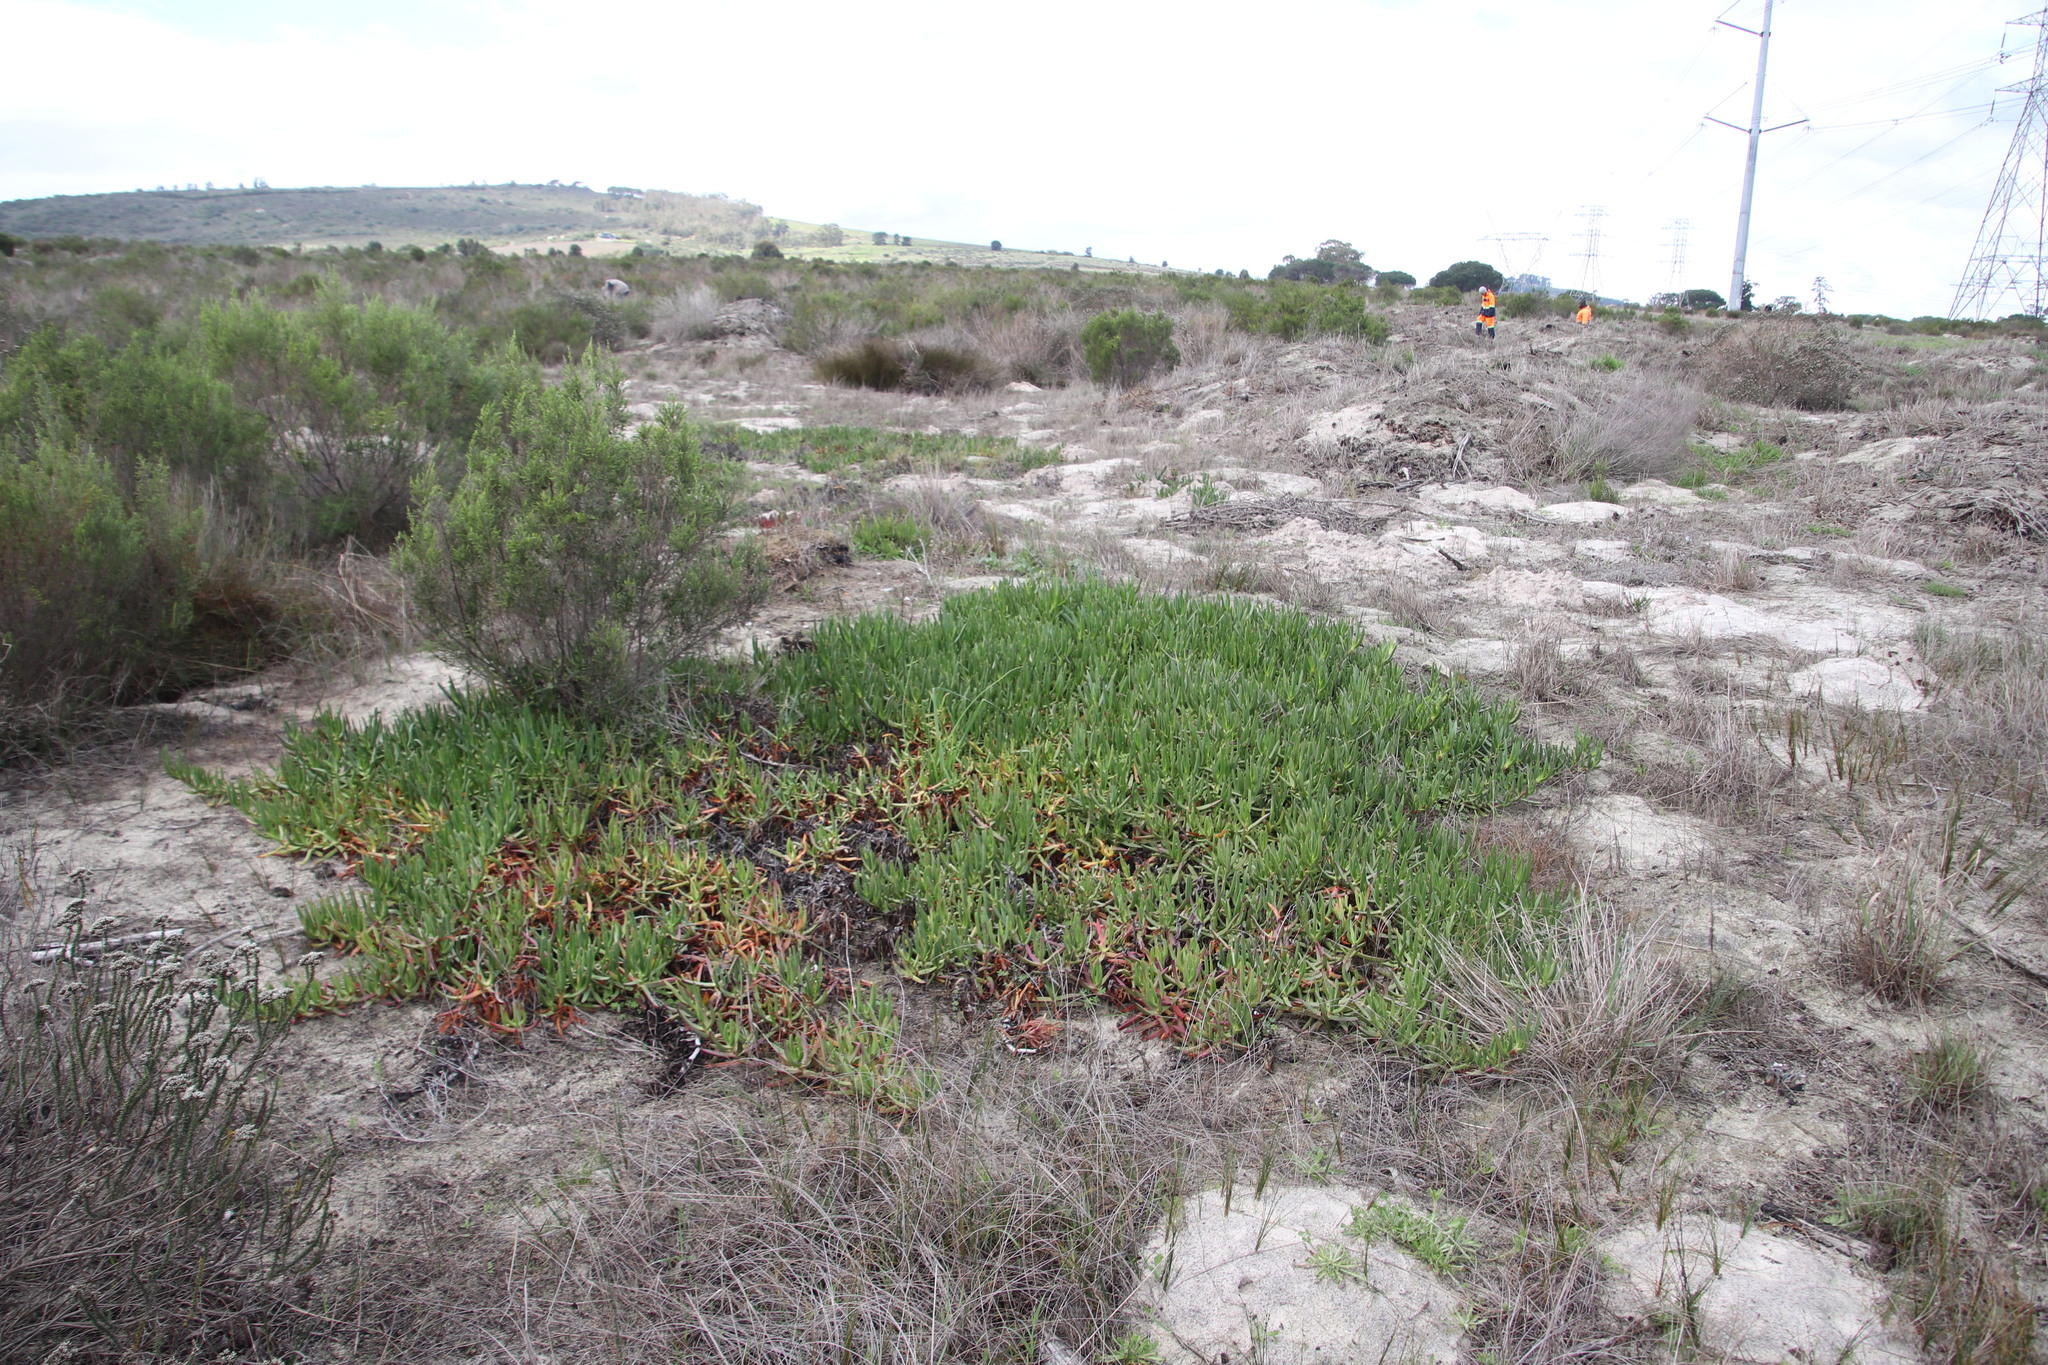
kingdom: Plantae
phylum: Tracheophyta
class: Magnoliopsida
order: Caryophyllales
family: Aizoaceae
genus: Carpobrotus
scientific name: Carpobrotus edulis
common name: Hottentot-fig
